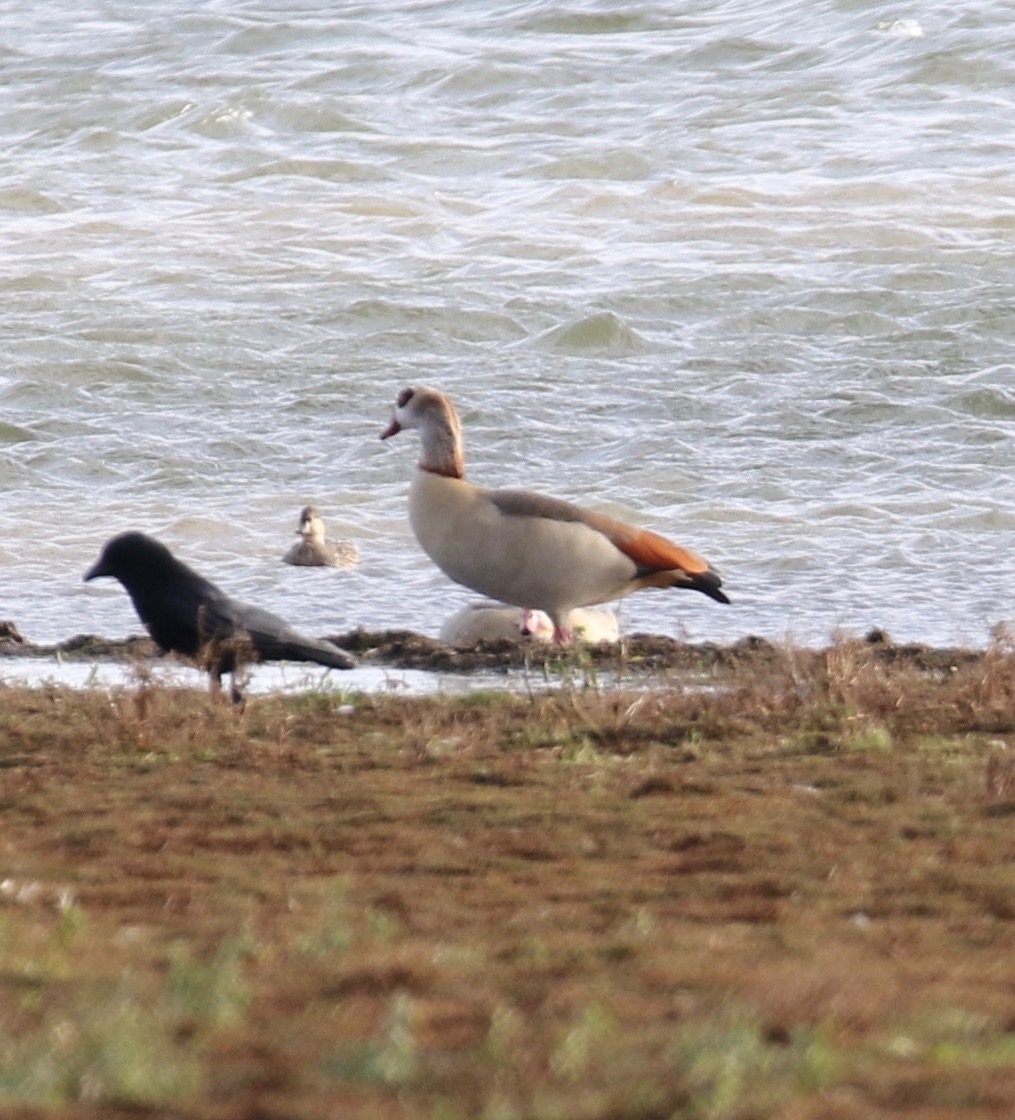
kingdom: Animalia
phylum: Chordata
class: Aves
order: Anseriformes
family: Anatidae
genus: Alopochen
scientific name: Alopochen aegyptiaca
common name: Egyptian goose
